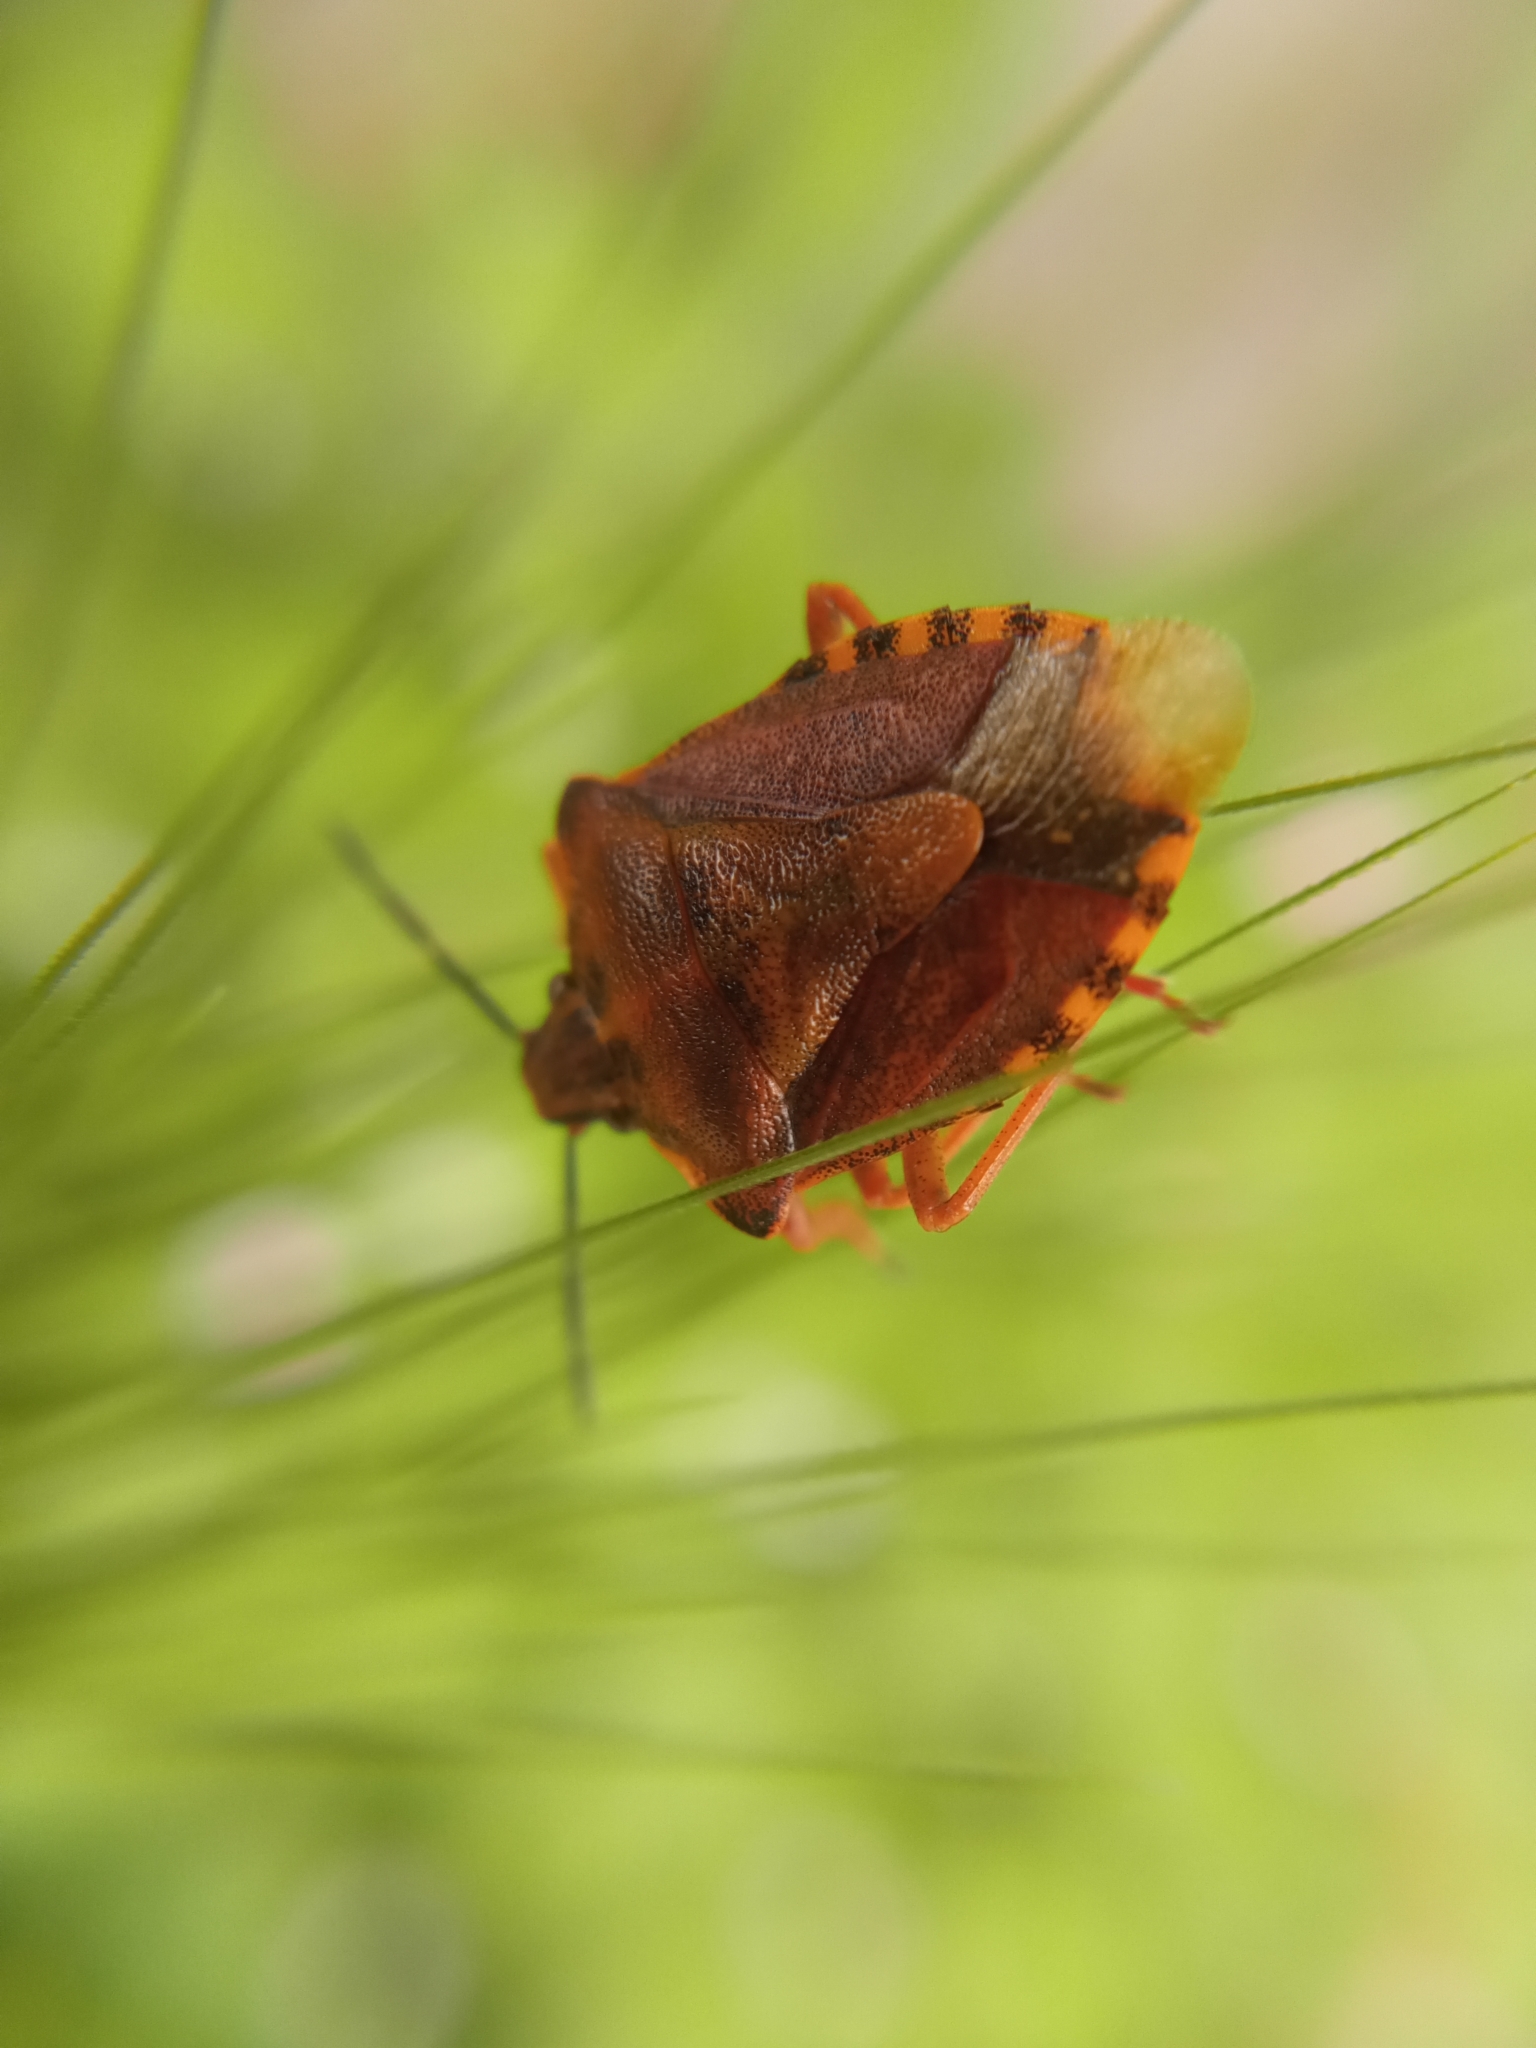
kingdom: Animalia
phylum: Arthropoda
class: Insecta
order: Hemiptera
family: Pentatomidae
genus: Carpocoris
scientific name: Carpocoris purpureipennis
